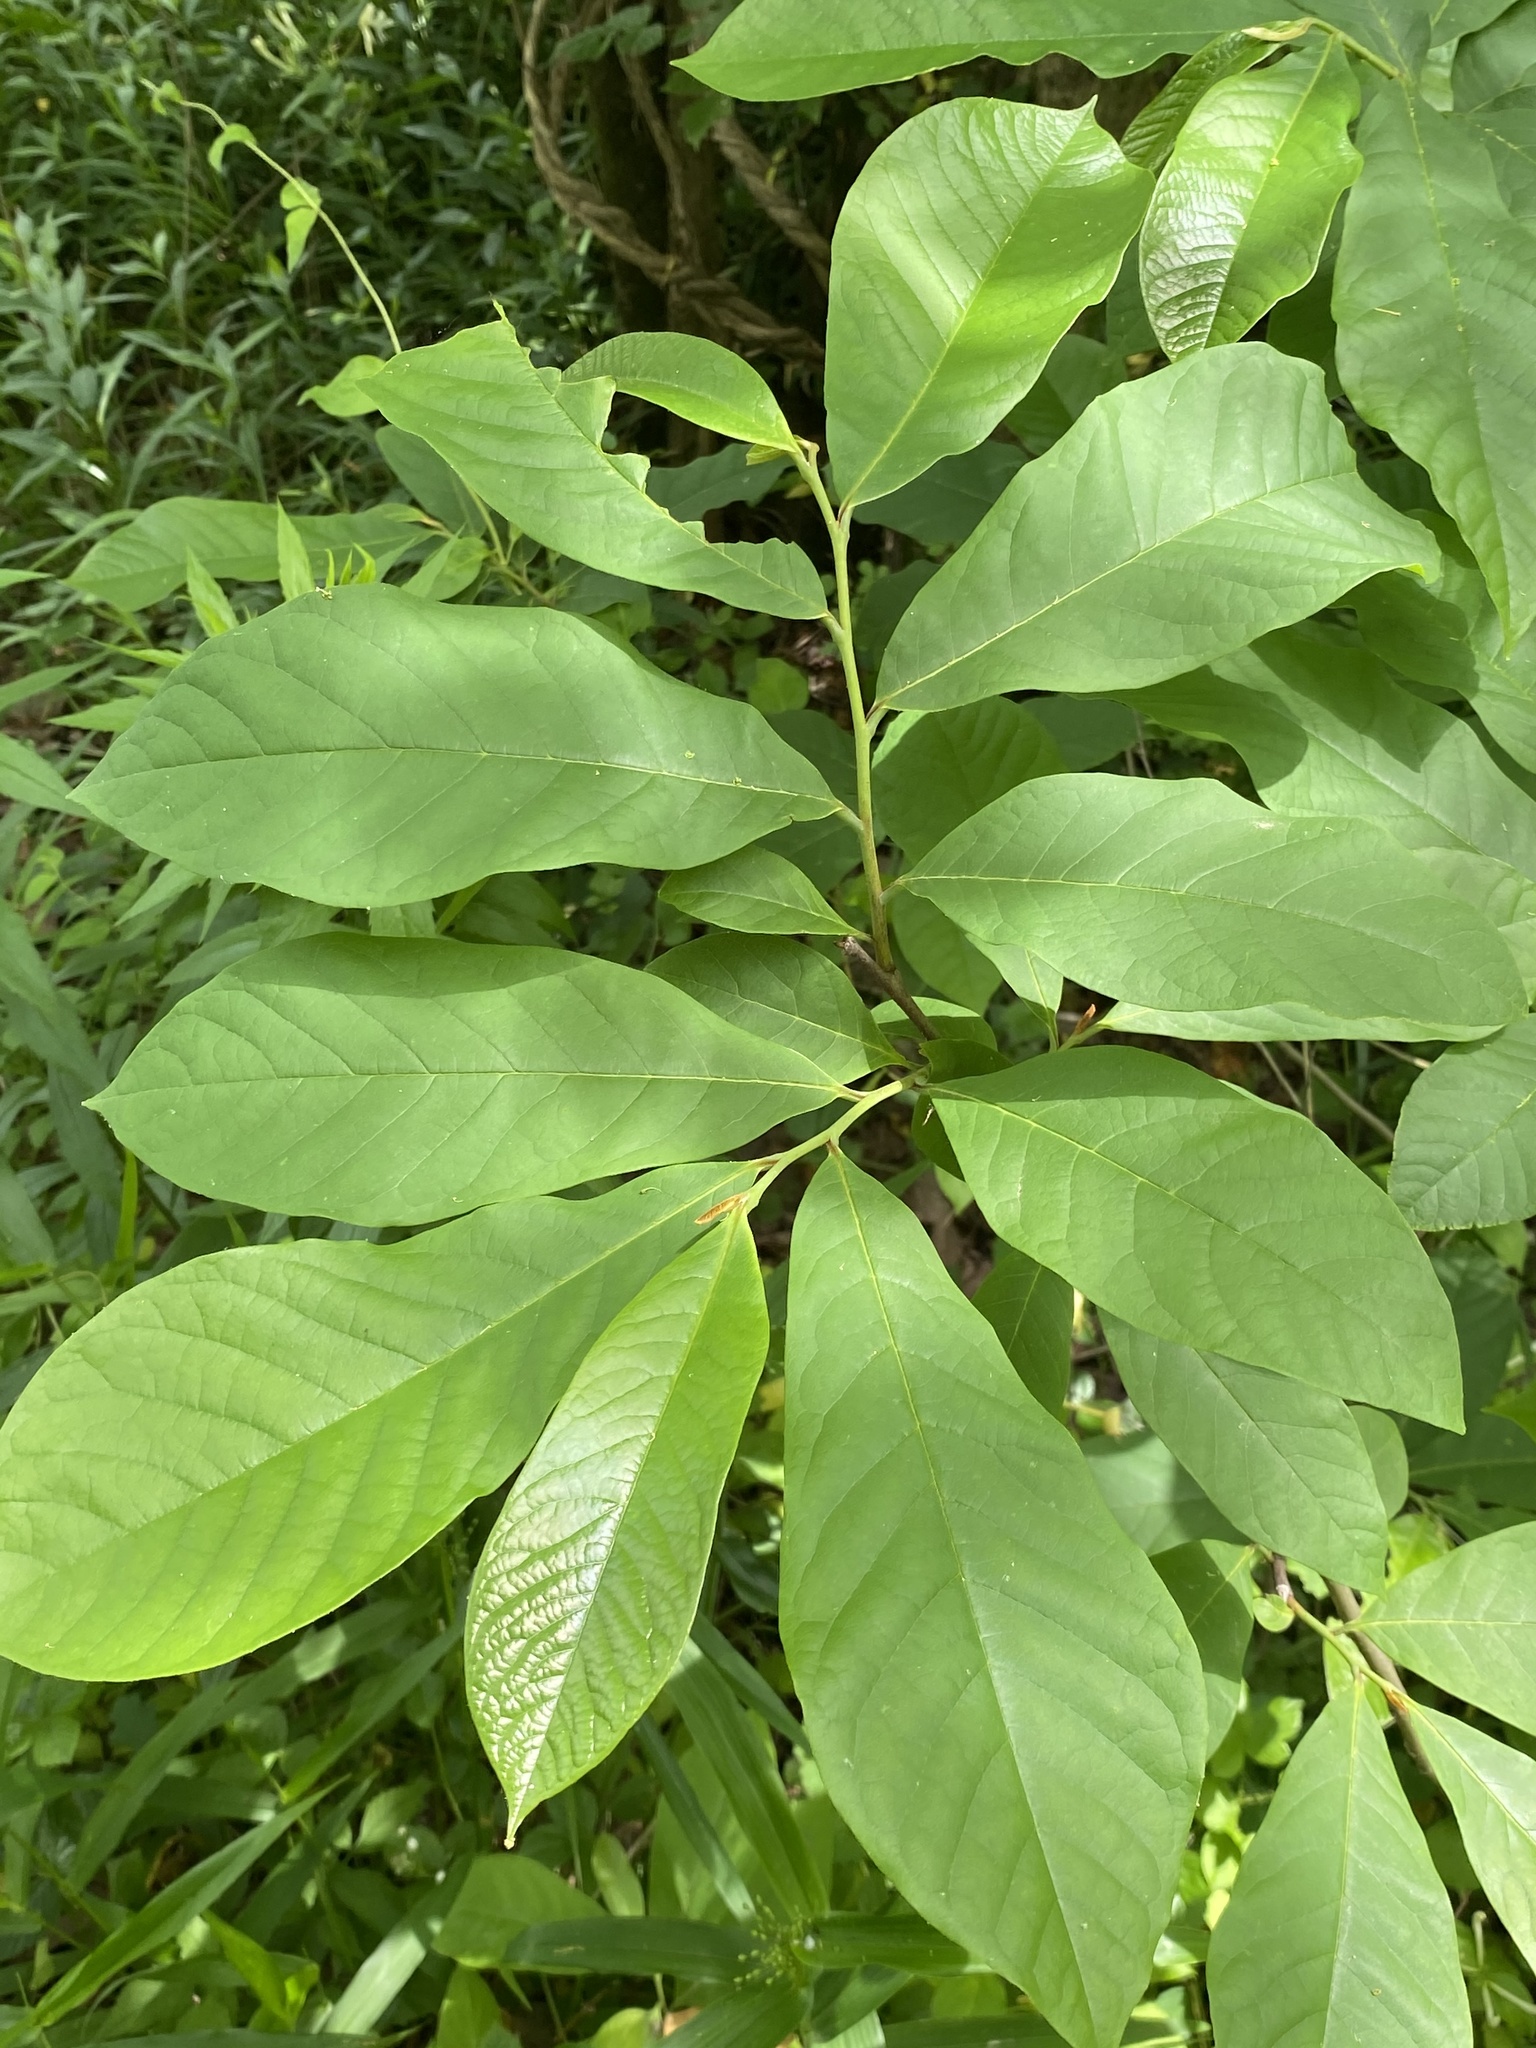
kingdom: Plantae
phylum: Tracheophyta
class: Magnoliopsida
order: Magnoliales
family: Annonaceae
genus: Asimina
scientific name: Asimina triloba
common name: Dog-banana
